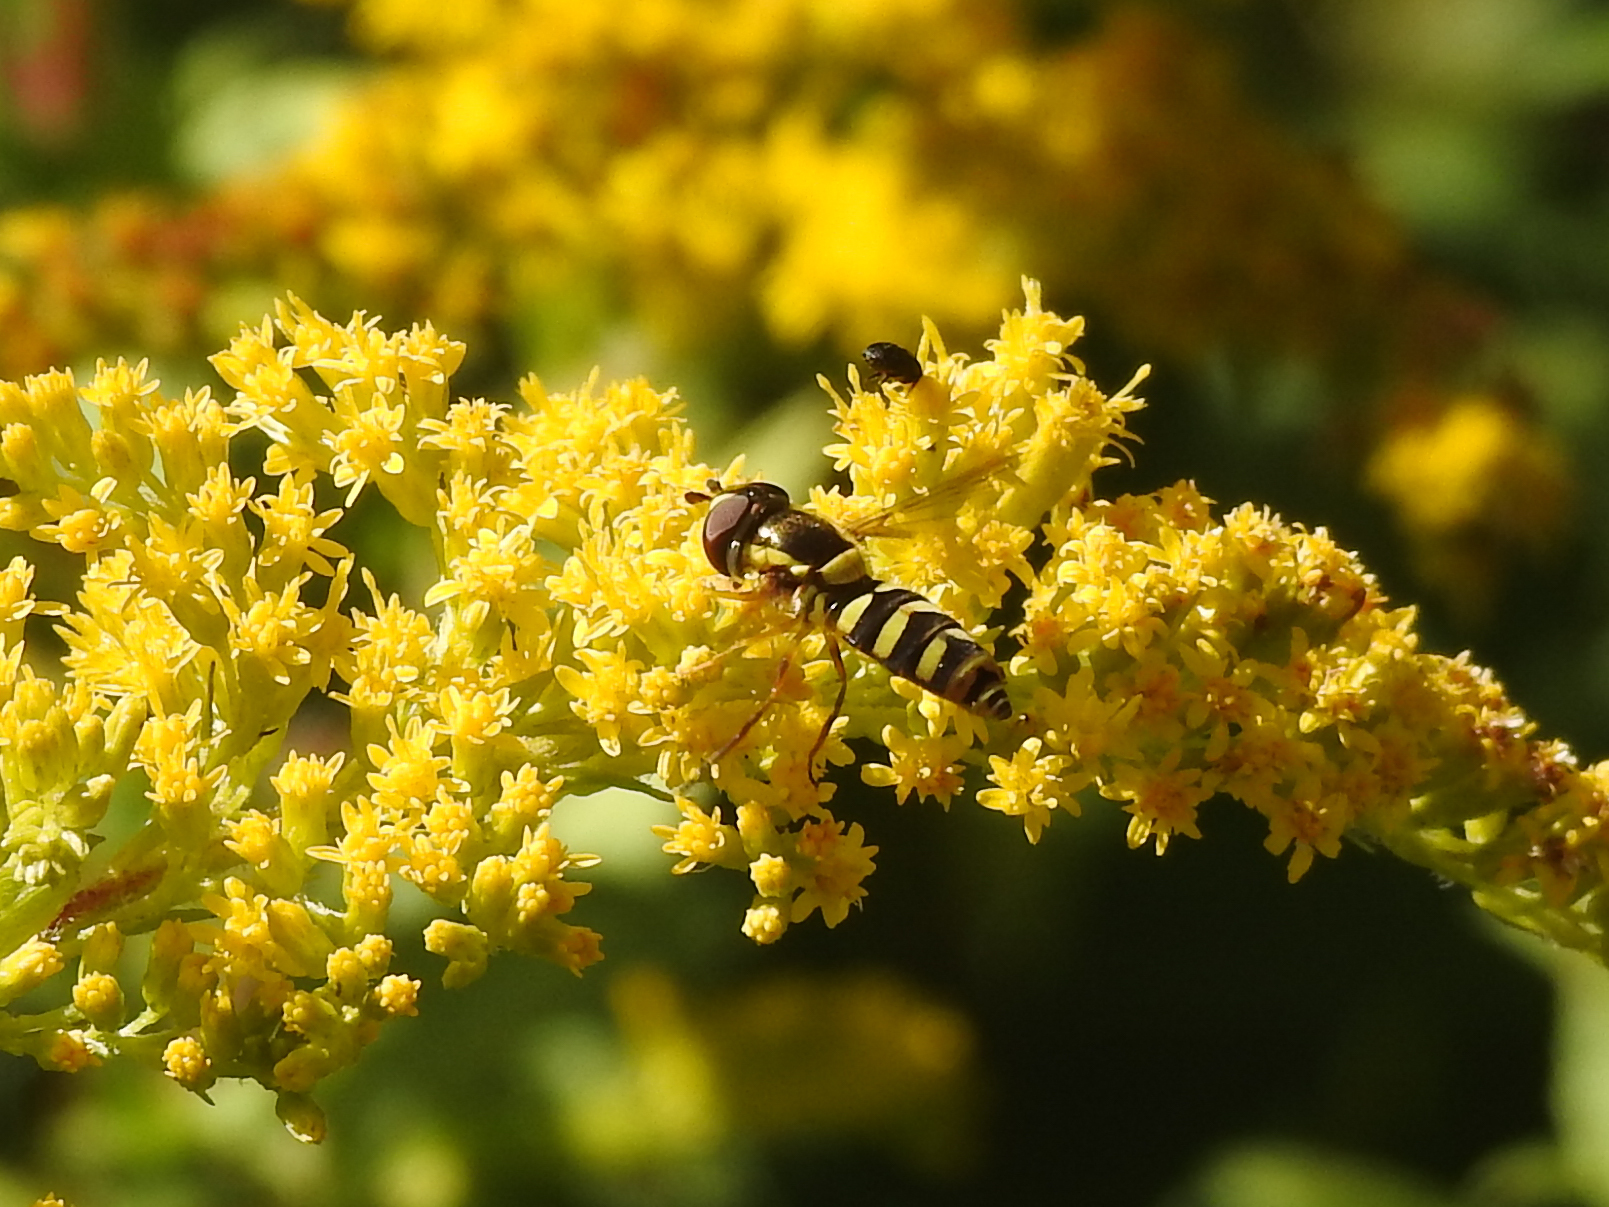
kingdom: Animalia
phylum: Arthropoda
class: Insecta
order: Diptera
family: Syrphidae
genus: Epistrophella
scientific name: Epistrophella emarginata
